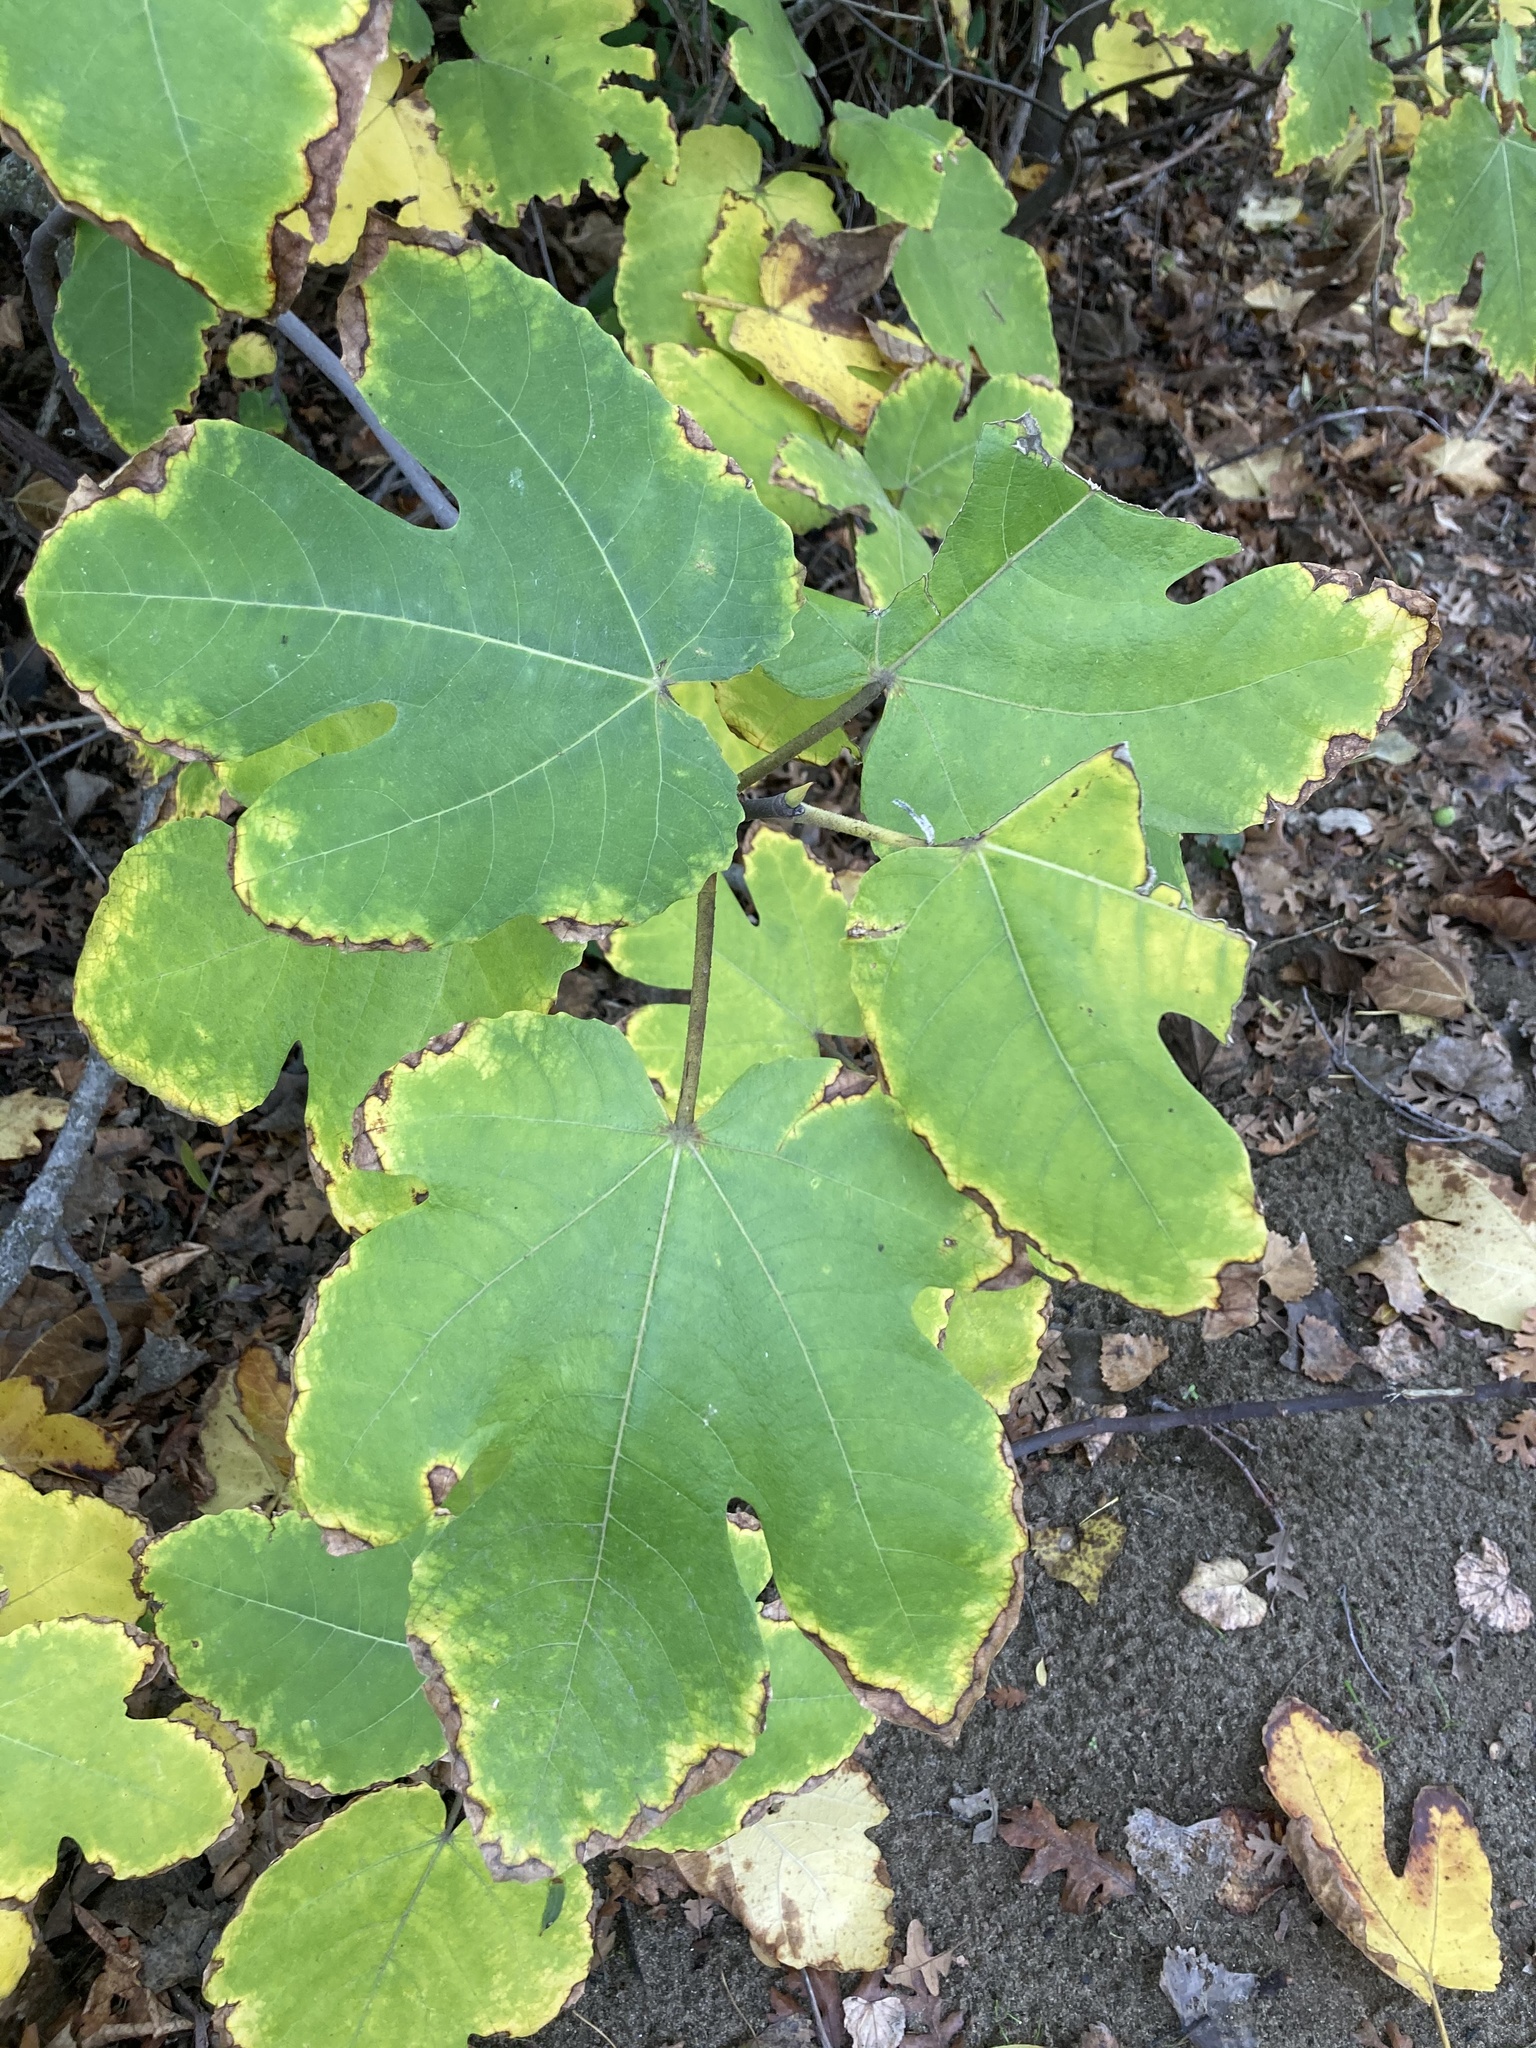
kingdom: Plantae
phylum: Tracheophyta
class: Magnoliopsida
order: Rosales
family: Moraceae
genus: Ficus
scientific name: Ficus carica
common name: Fig
